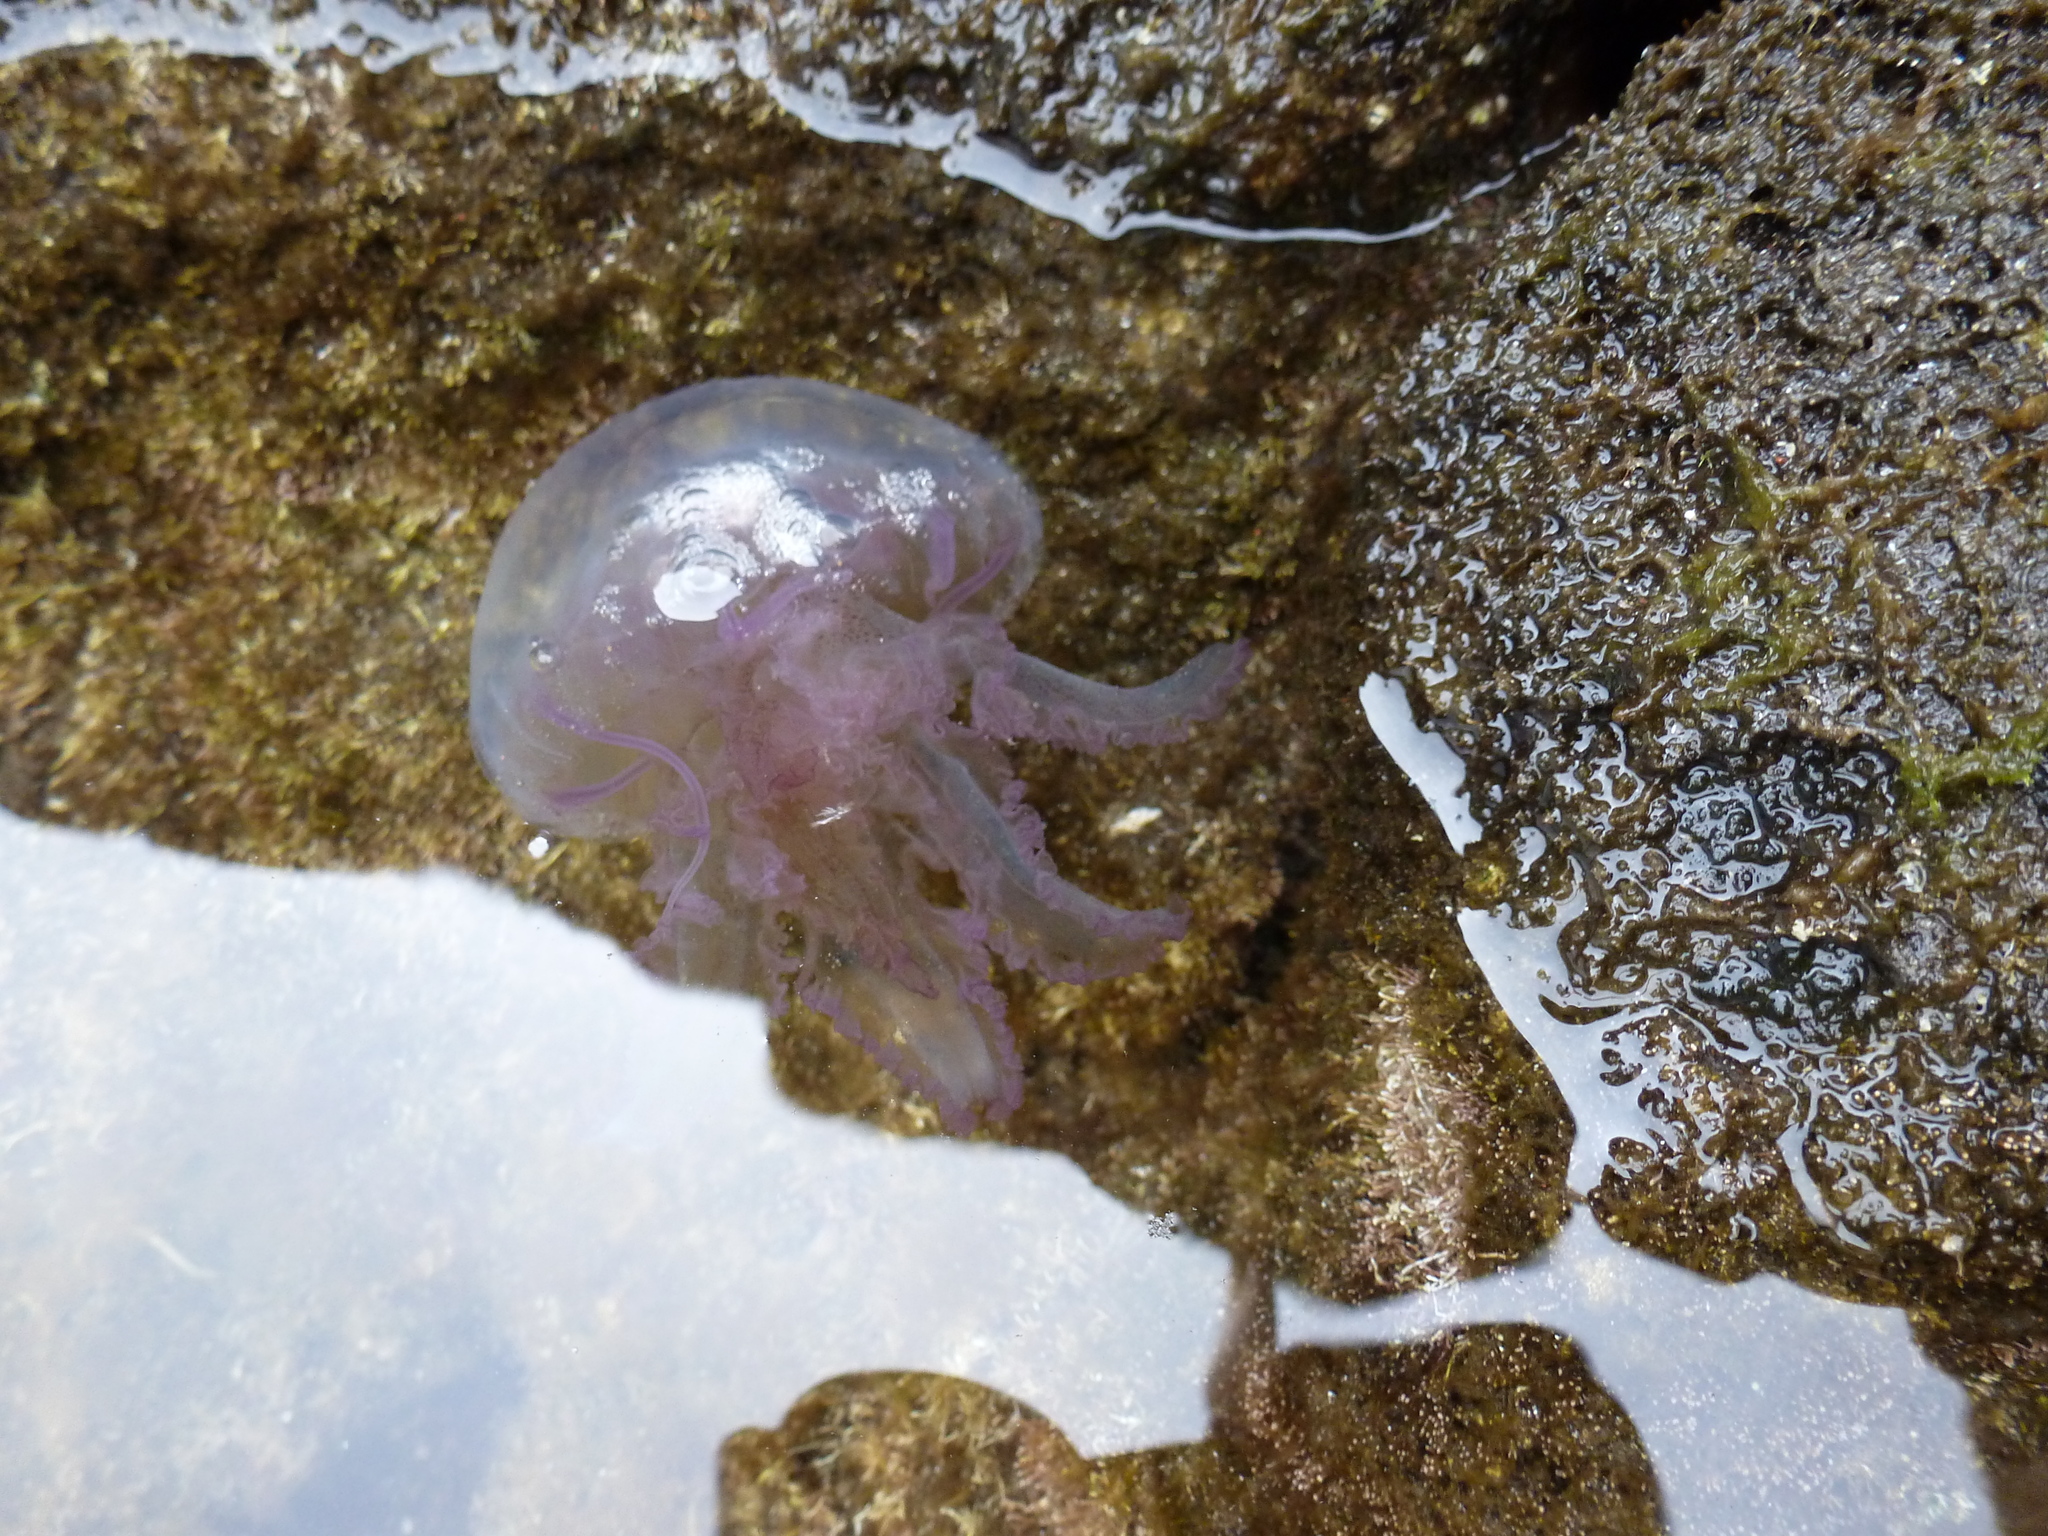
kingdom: Animalia
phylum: Cnidaria
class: Scyphozoa
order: Semaeostomeae
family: Pelagiidae
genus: Pelagia
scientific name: Pelagia noctiluca
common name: Mauve stinger
